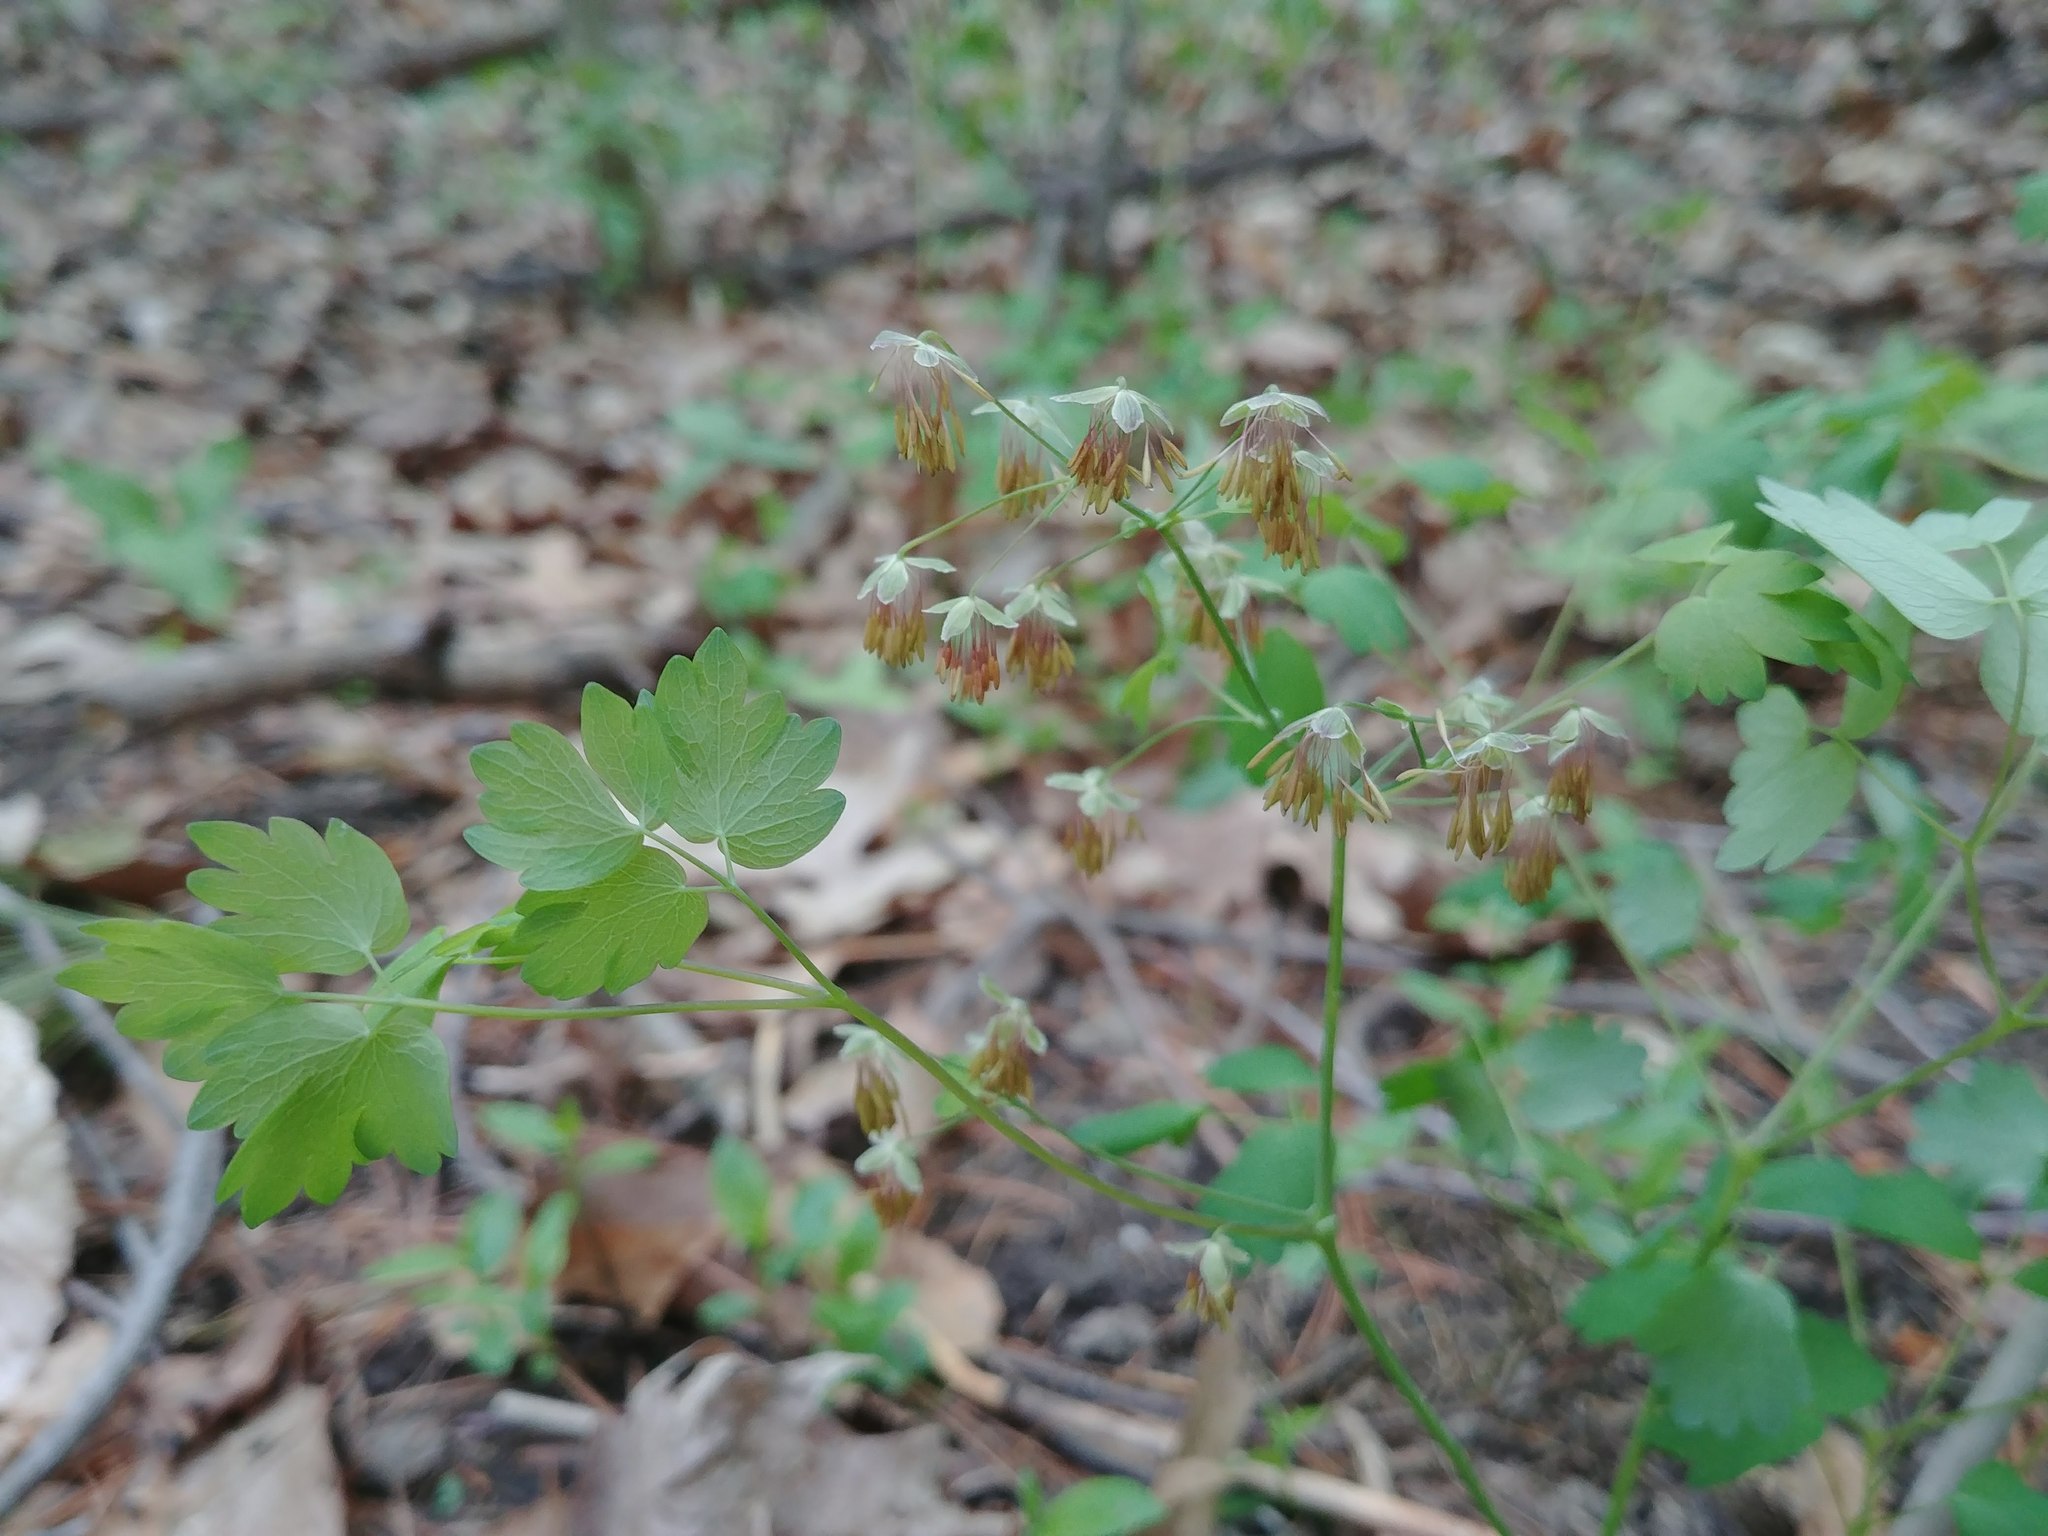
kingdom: Plantae
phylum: Tracheophyta
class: Magnoliopsida
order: Ranunculales
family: Ranunculaceae
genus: Thalictrum
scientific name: Thalictrum dioicum
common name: Early meadow-rue
